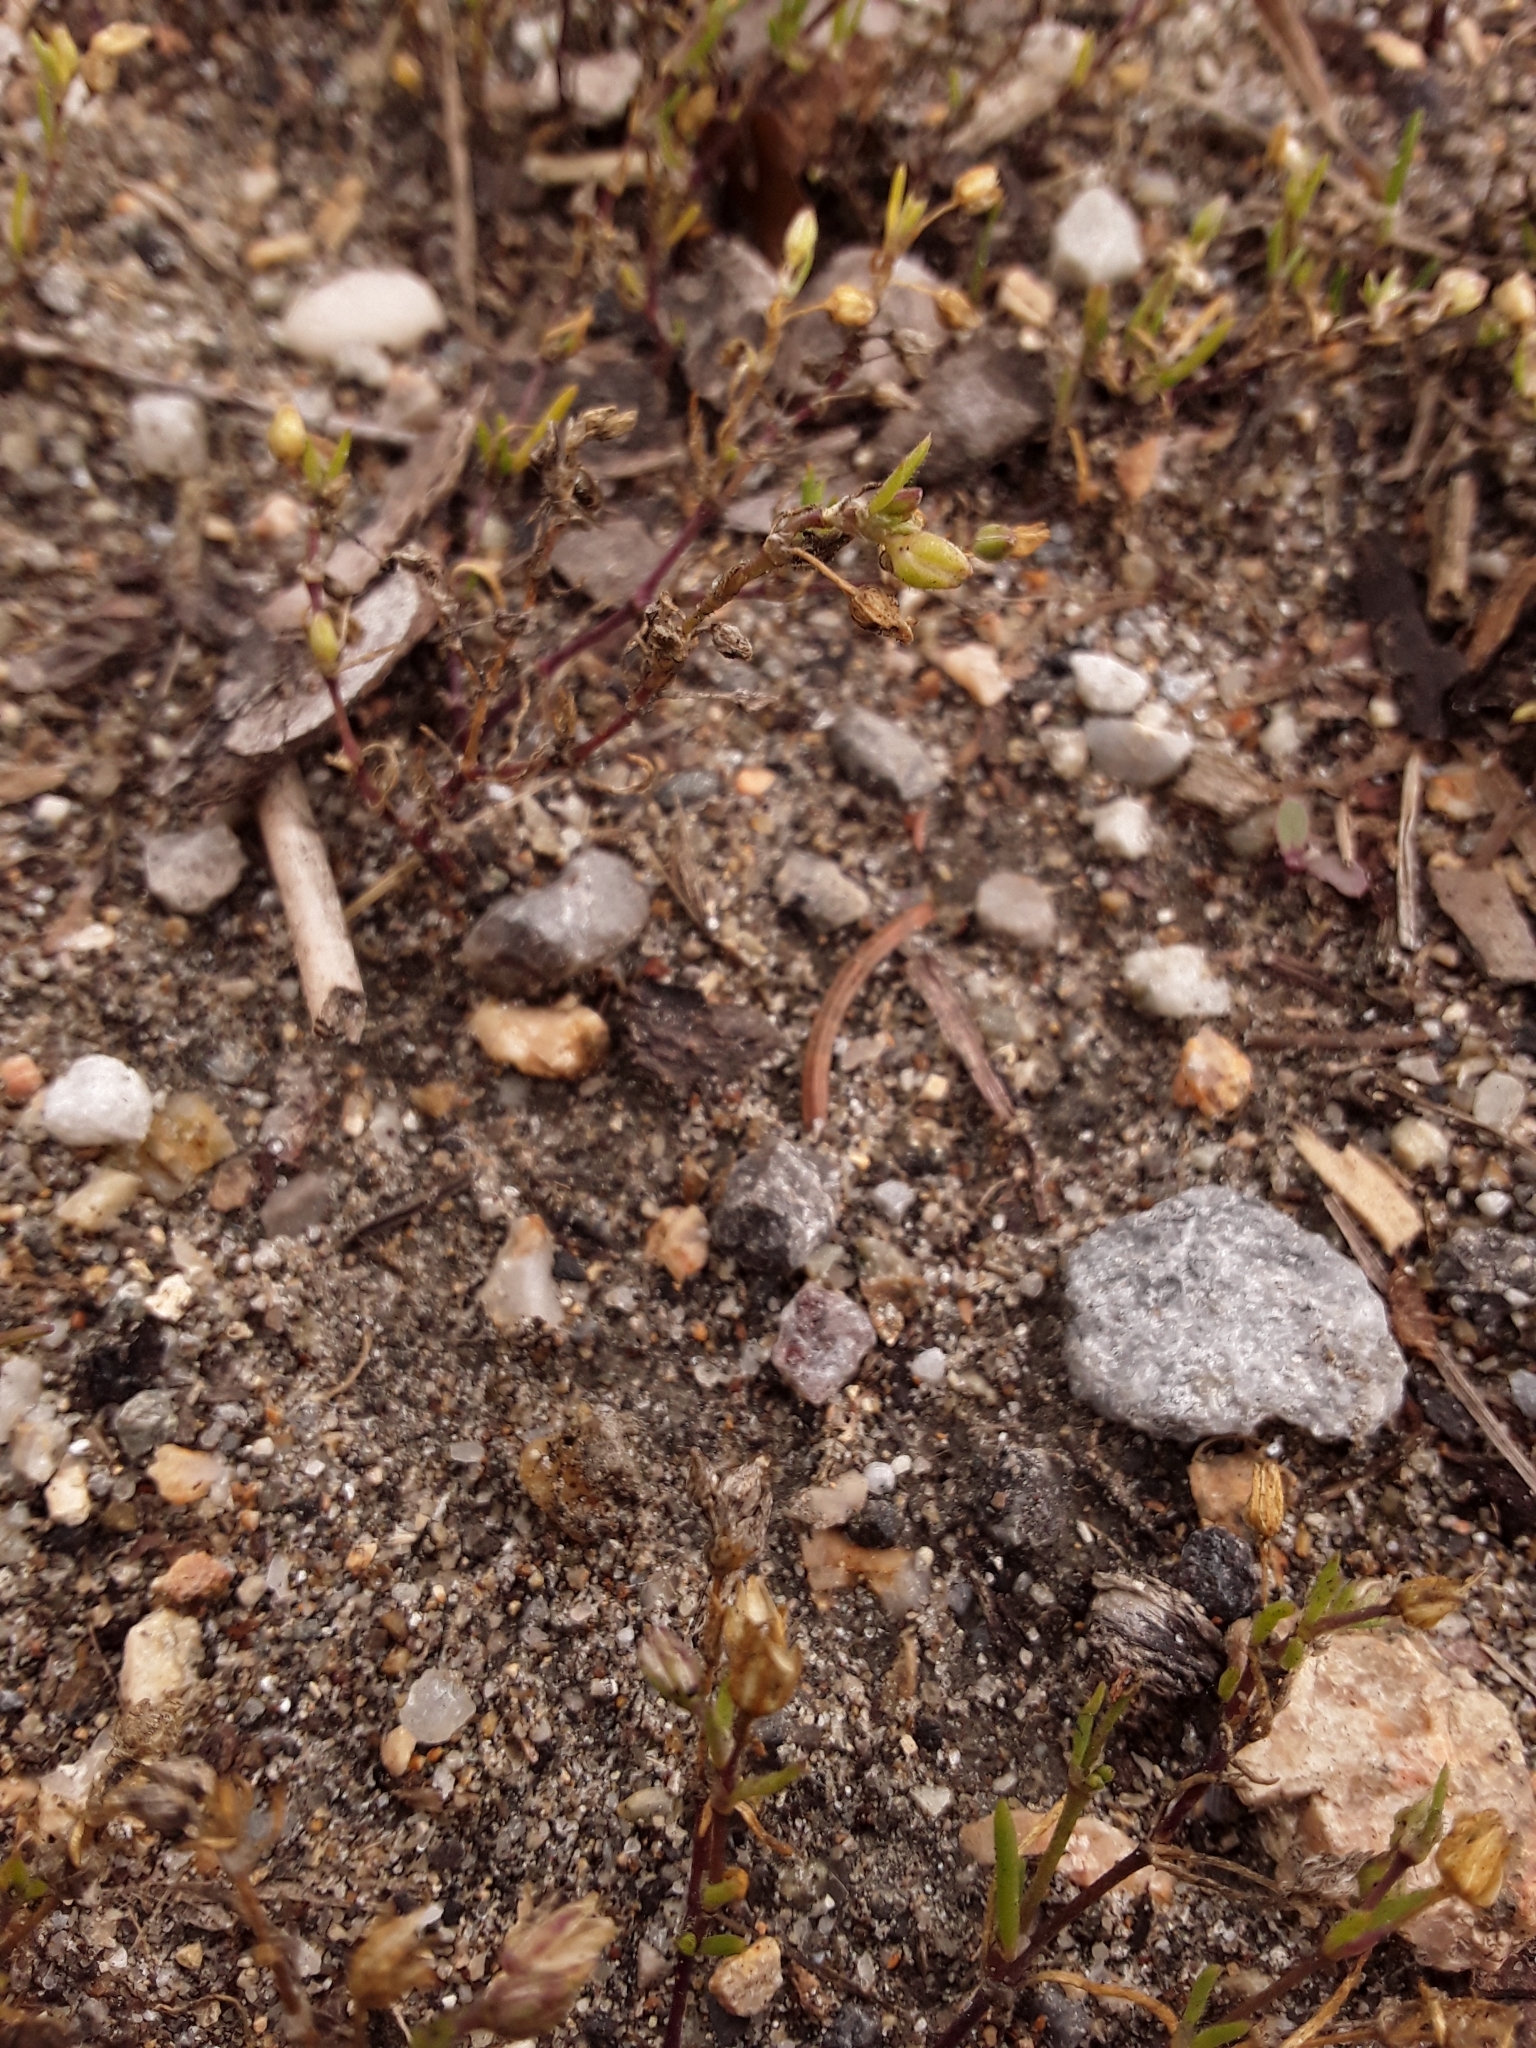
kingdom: Plantae
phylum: Tracheophyta
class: Magnoliopsida
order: Caryophyllales
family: Caryophyllaceae
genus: Spergularia
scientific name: Spergularia marina
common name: Lesser sea-spurrey
